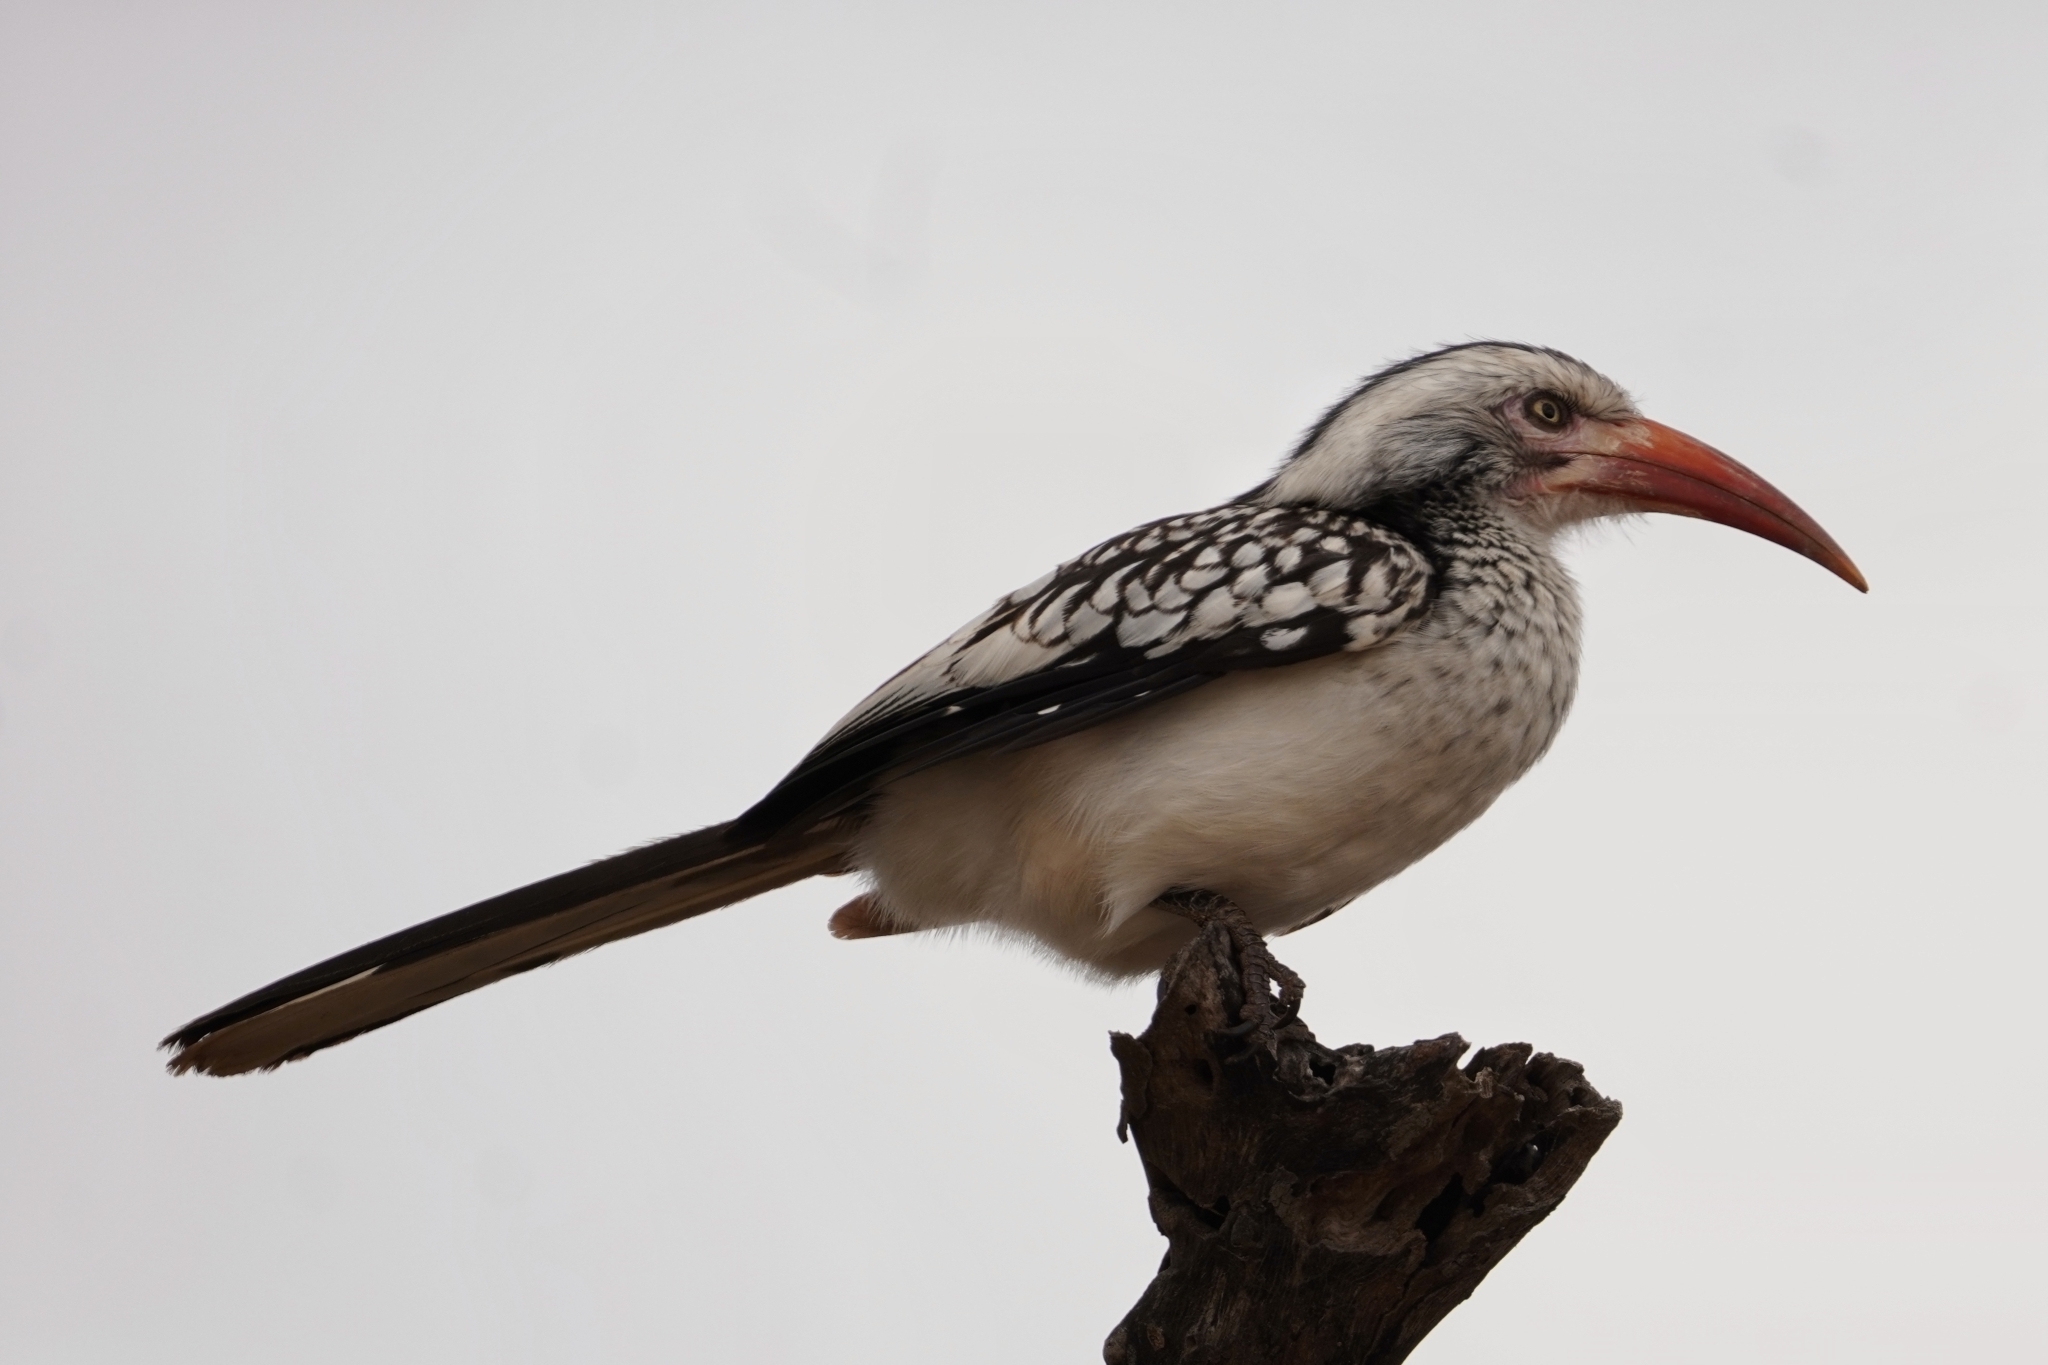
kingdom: Animalia
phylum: Chordata
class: Aves
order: Bucerotiformes
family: Bucerotidae
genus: Tockus
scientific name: Tockus rufirostris
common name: Southern red-billed hornbill
